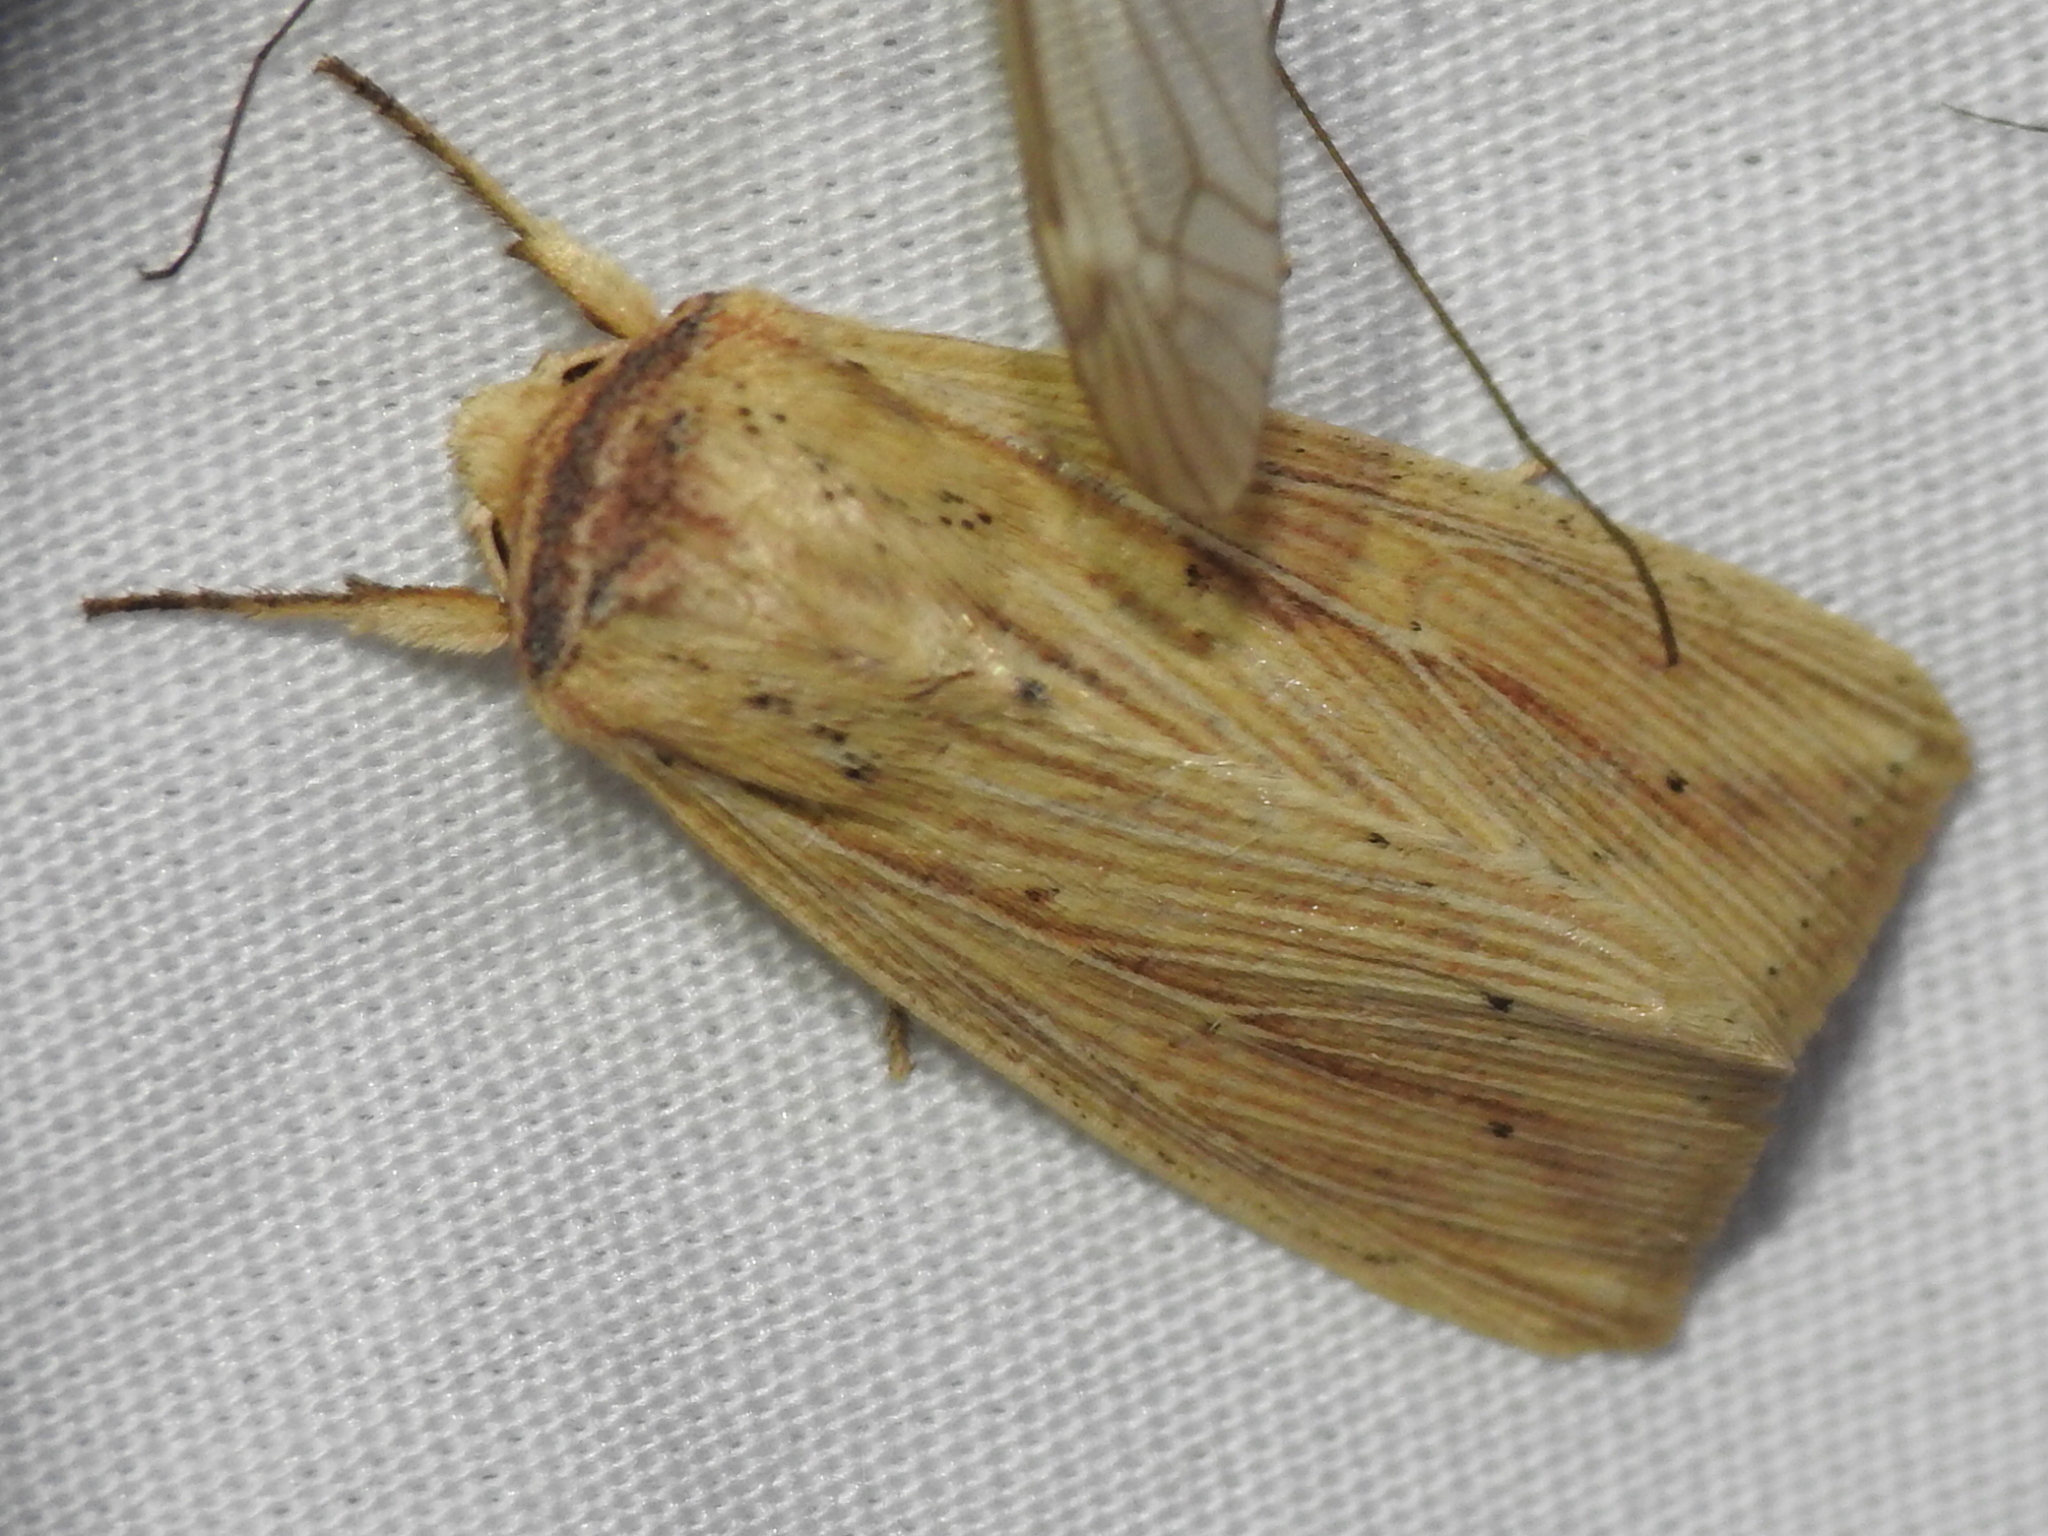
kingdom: Animalia
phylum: Arthropoda
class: Insecta
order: Lepidoptera
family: Noctuidae
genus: Leucania
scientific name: Leucania adjuta
